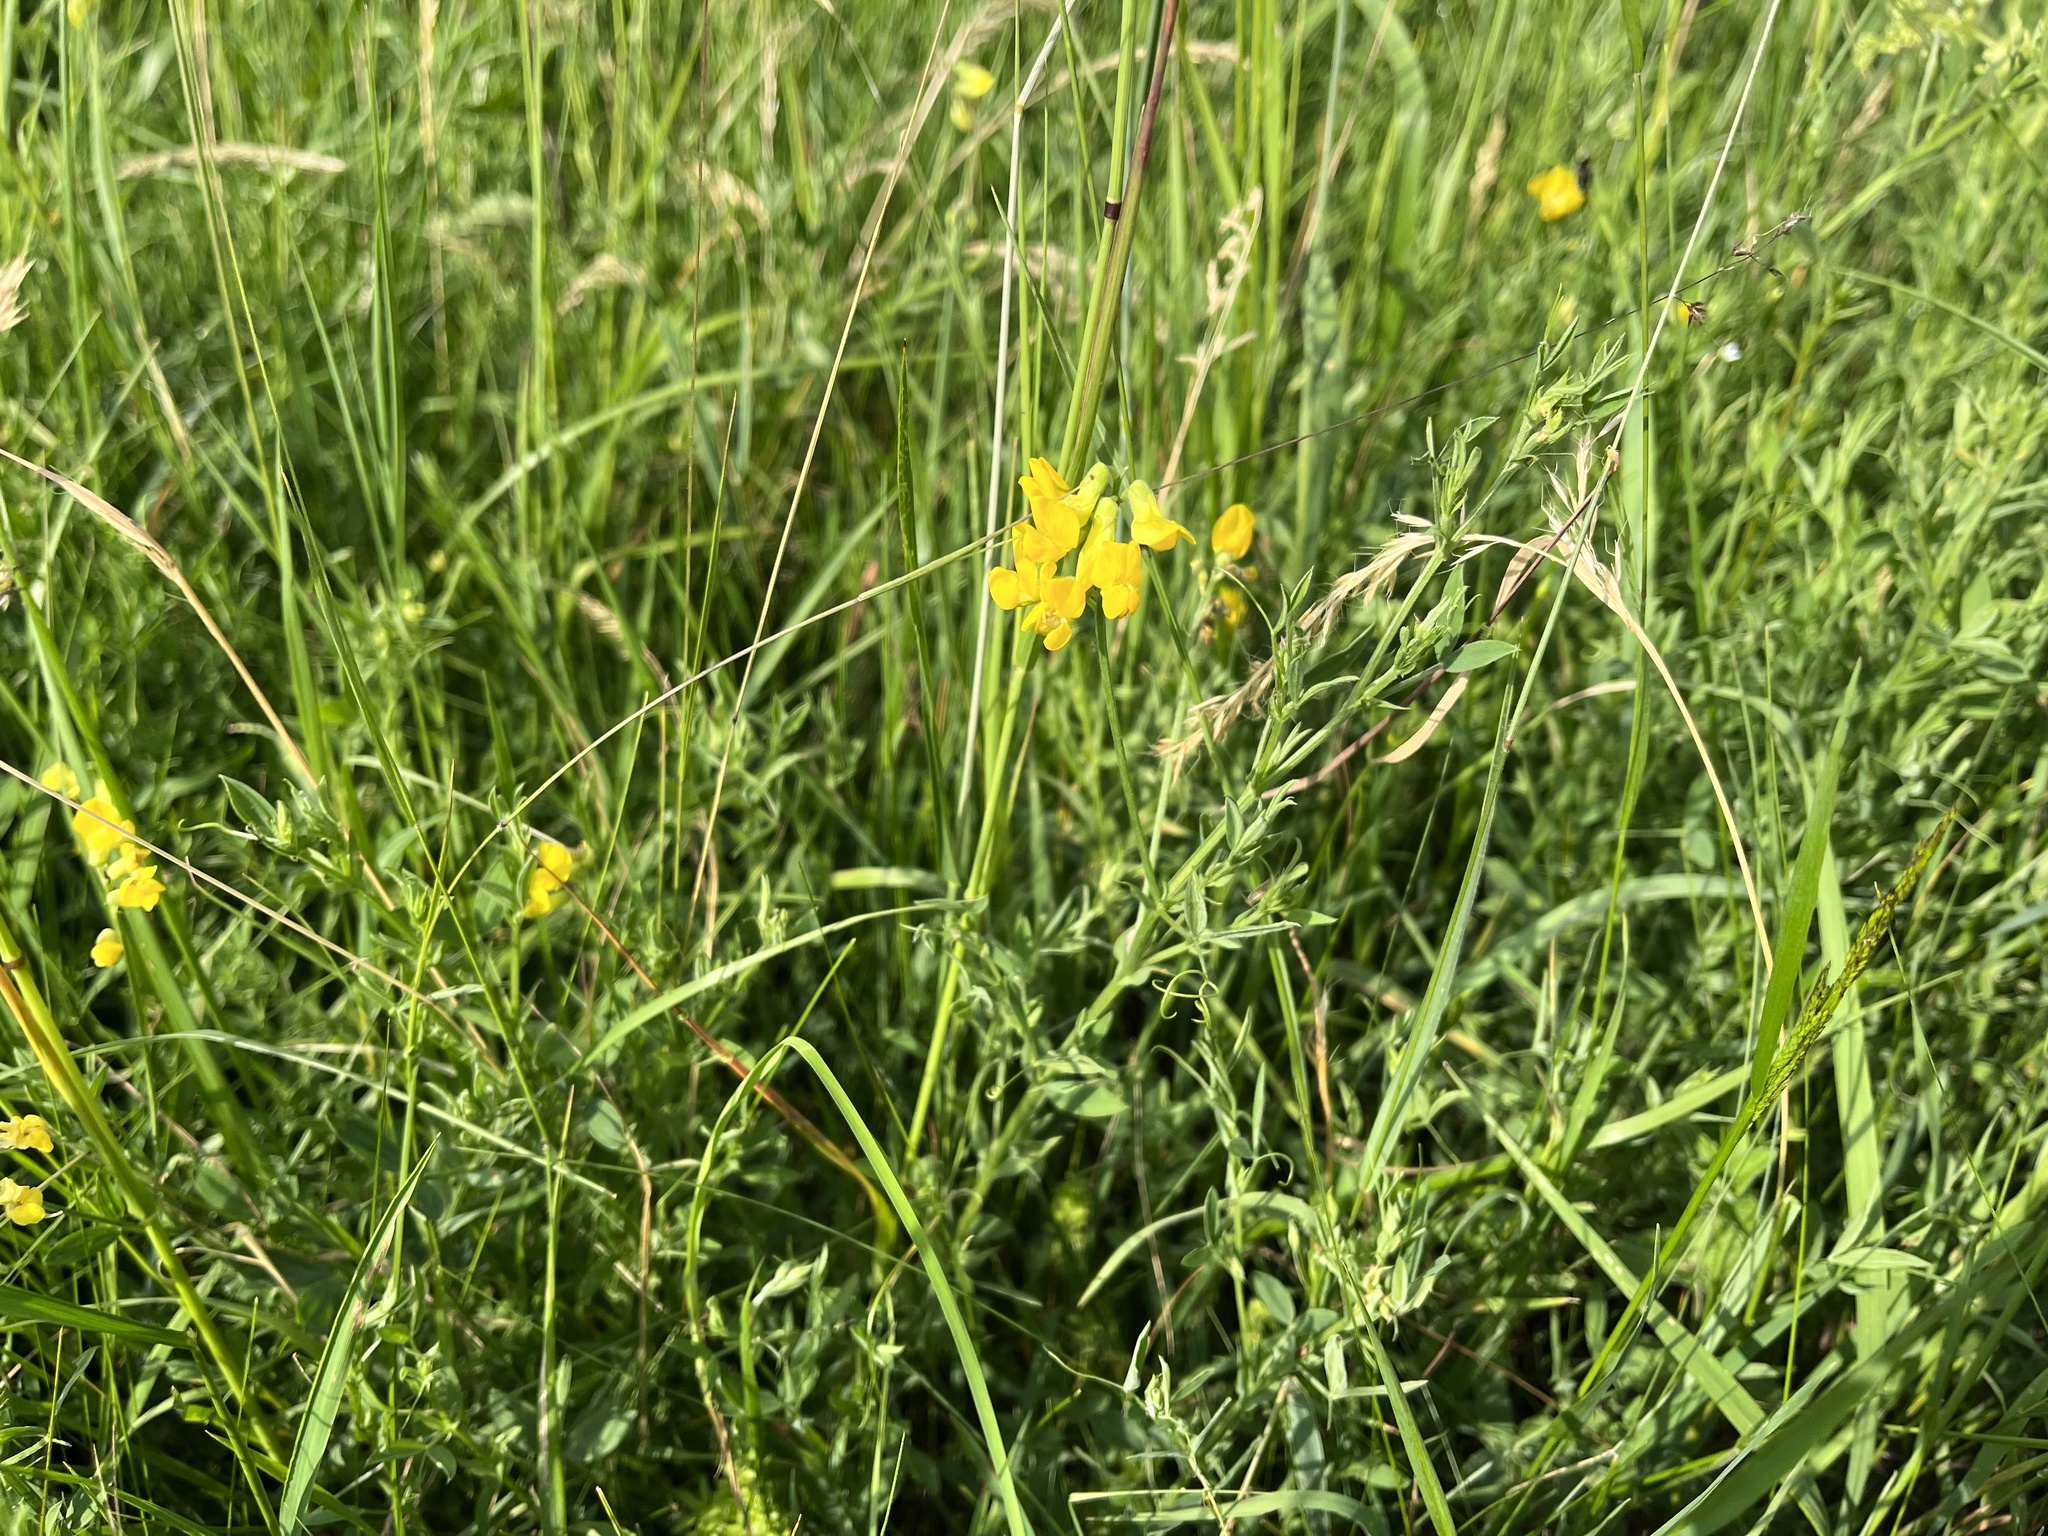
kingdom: Plantae
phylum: Tracheophyta
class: Magnoliopsida
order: Fabales
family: Fabaceae
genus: Lathyrus
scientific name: Lathyrus pratensis
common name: Meadow vetchling
